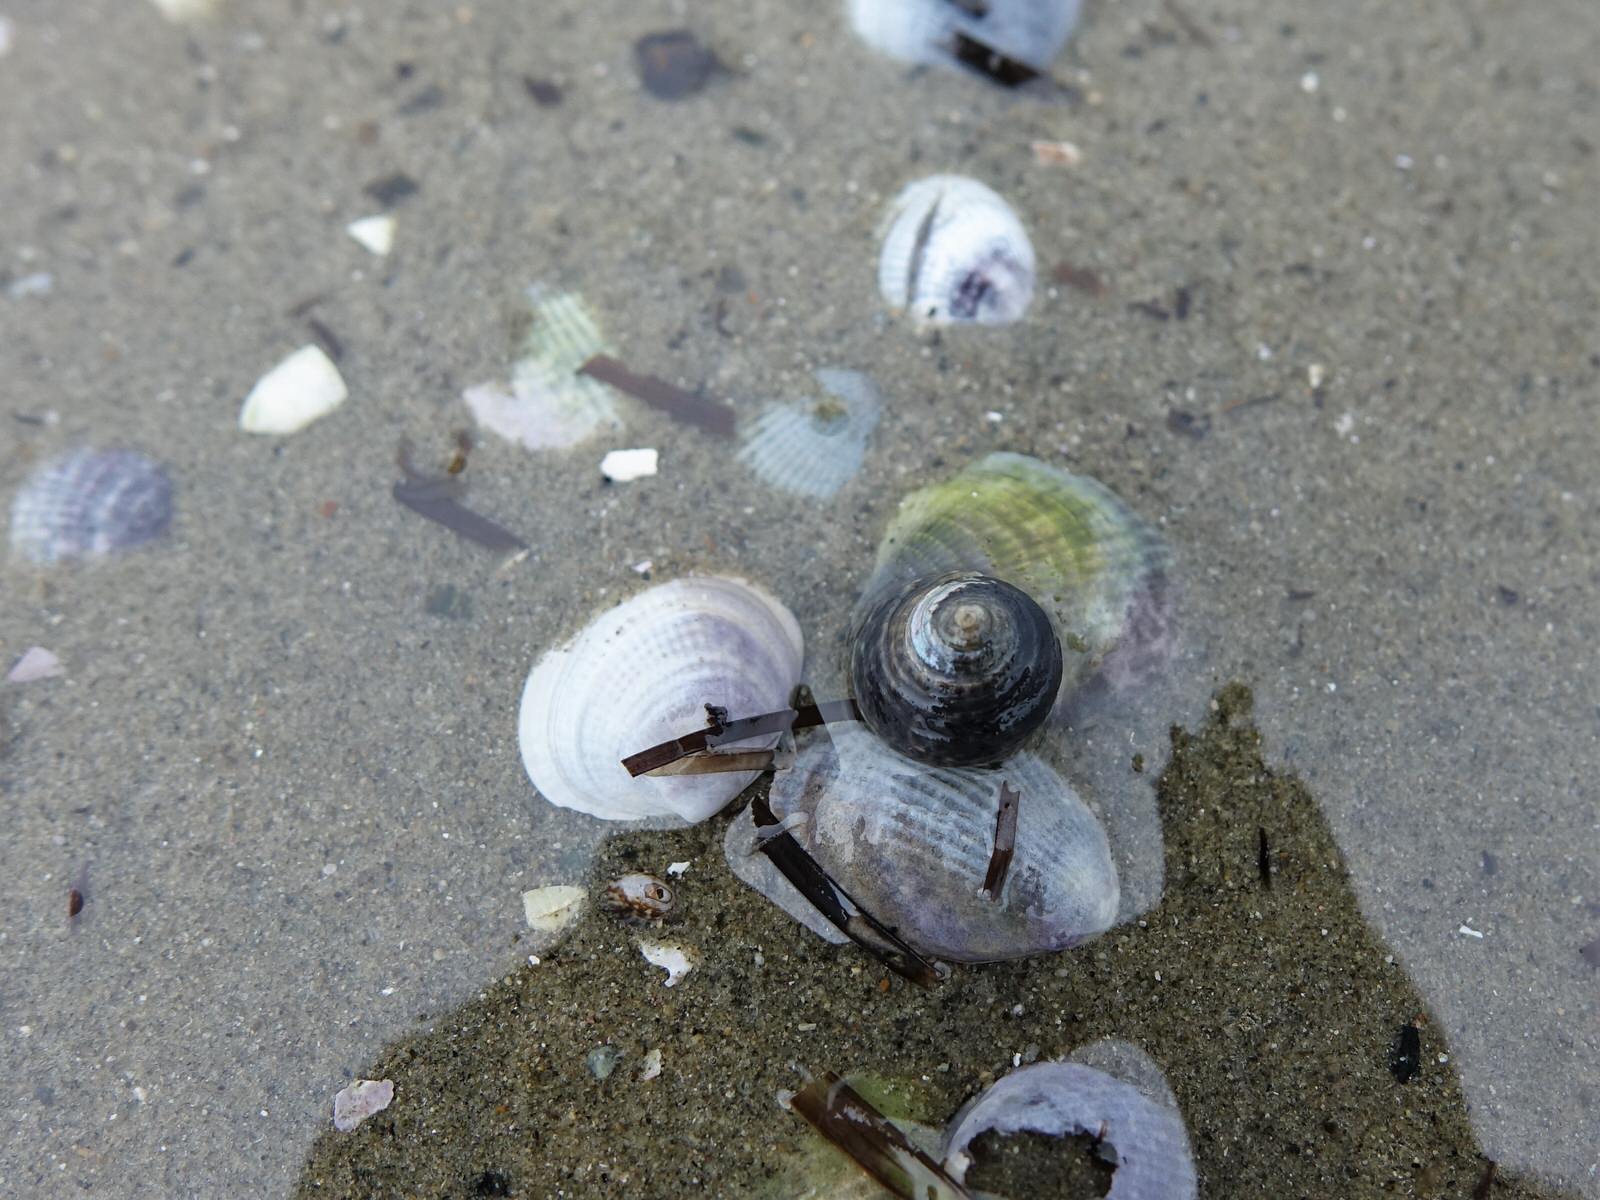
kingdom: Animalia
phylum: Mollusca
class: Gastropoda
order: Trochida
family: Trochidae
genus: Diloma
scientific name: Diloma subrostratum
